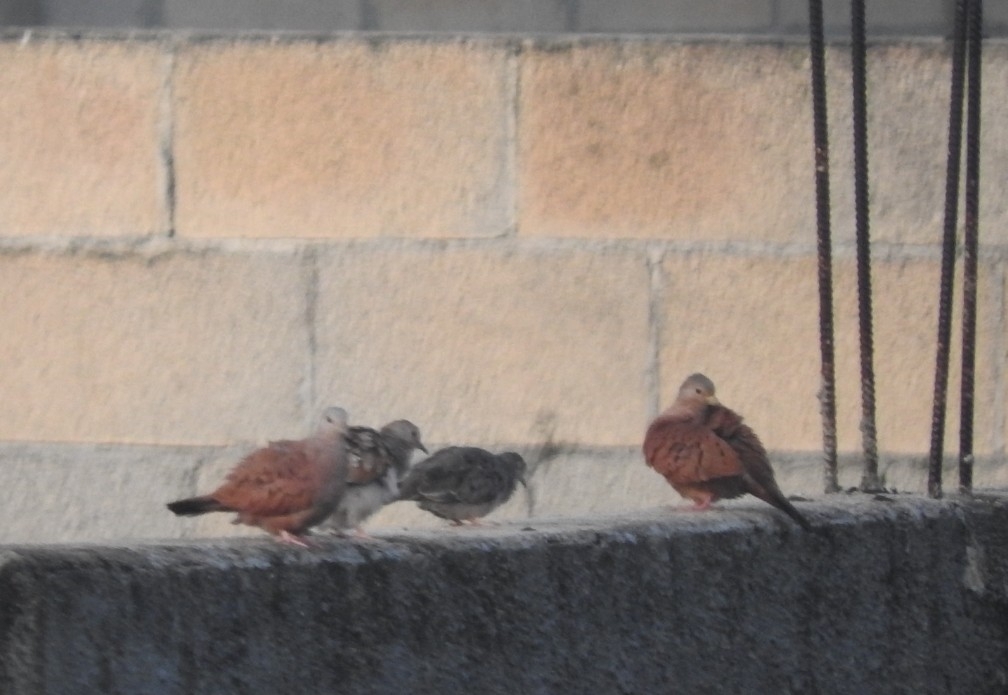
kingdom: Animalia
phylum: Chordata
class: Aves
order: Columbiformes
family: Columbidae
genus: Columbina
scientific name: Columbina talpacoti
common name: Ruddy ground dove
